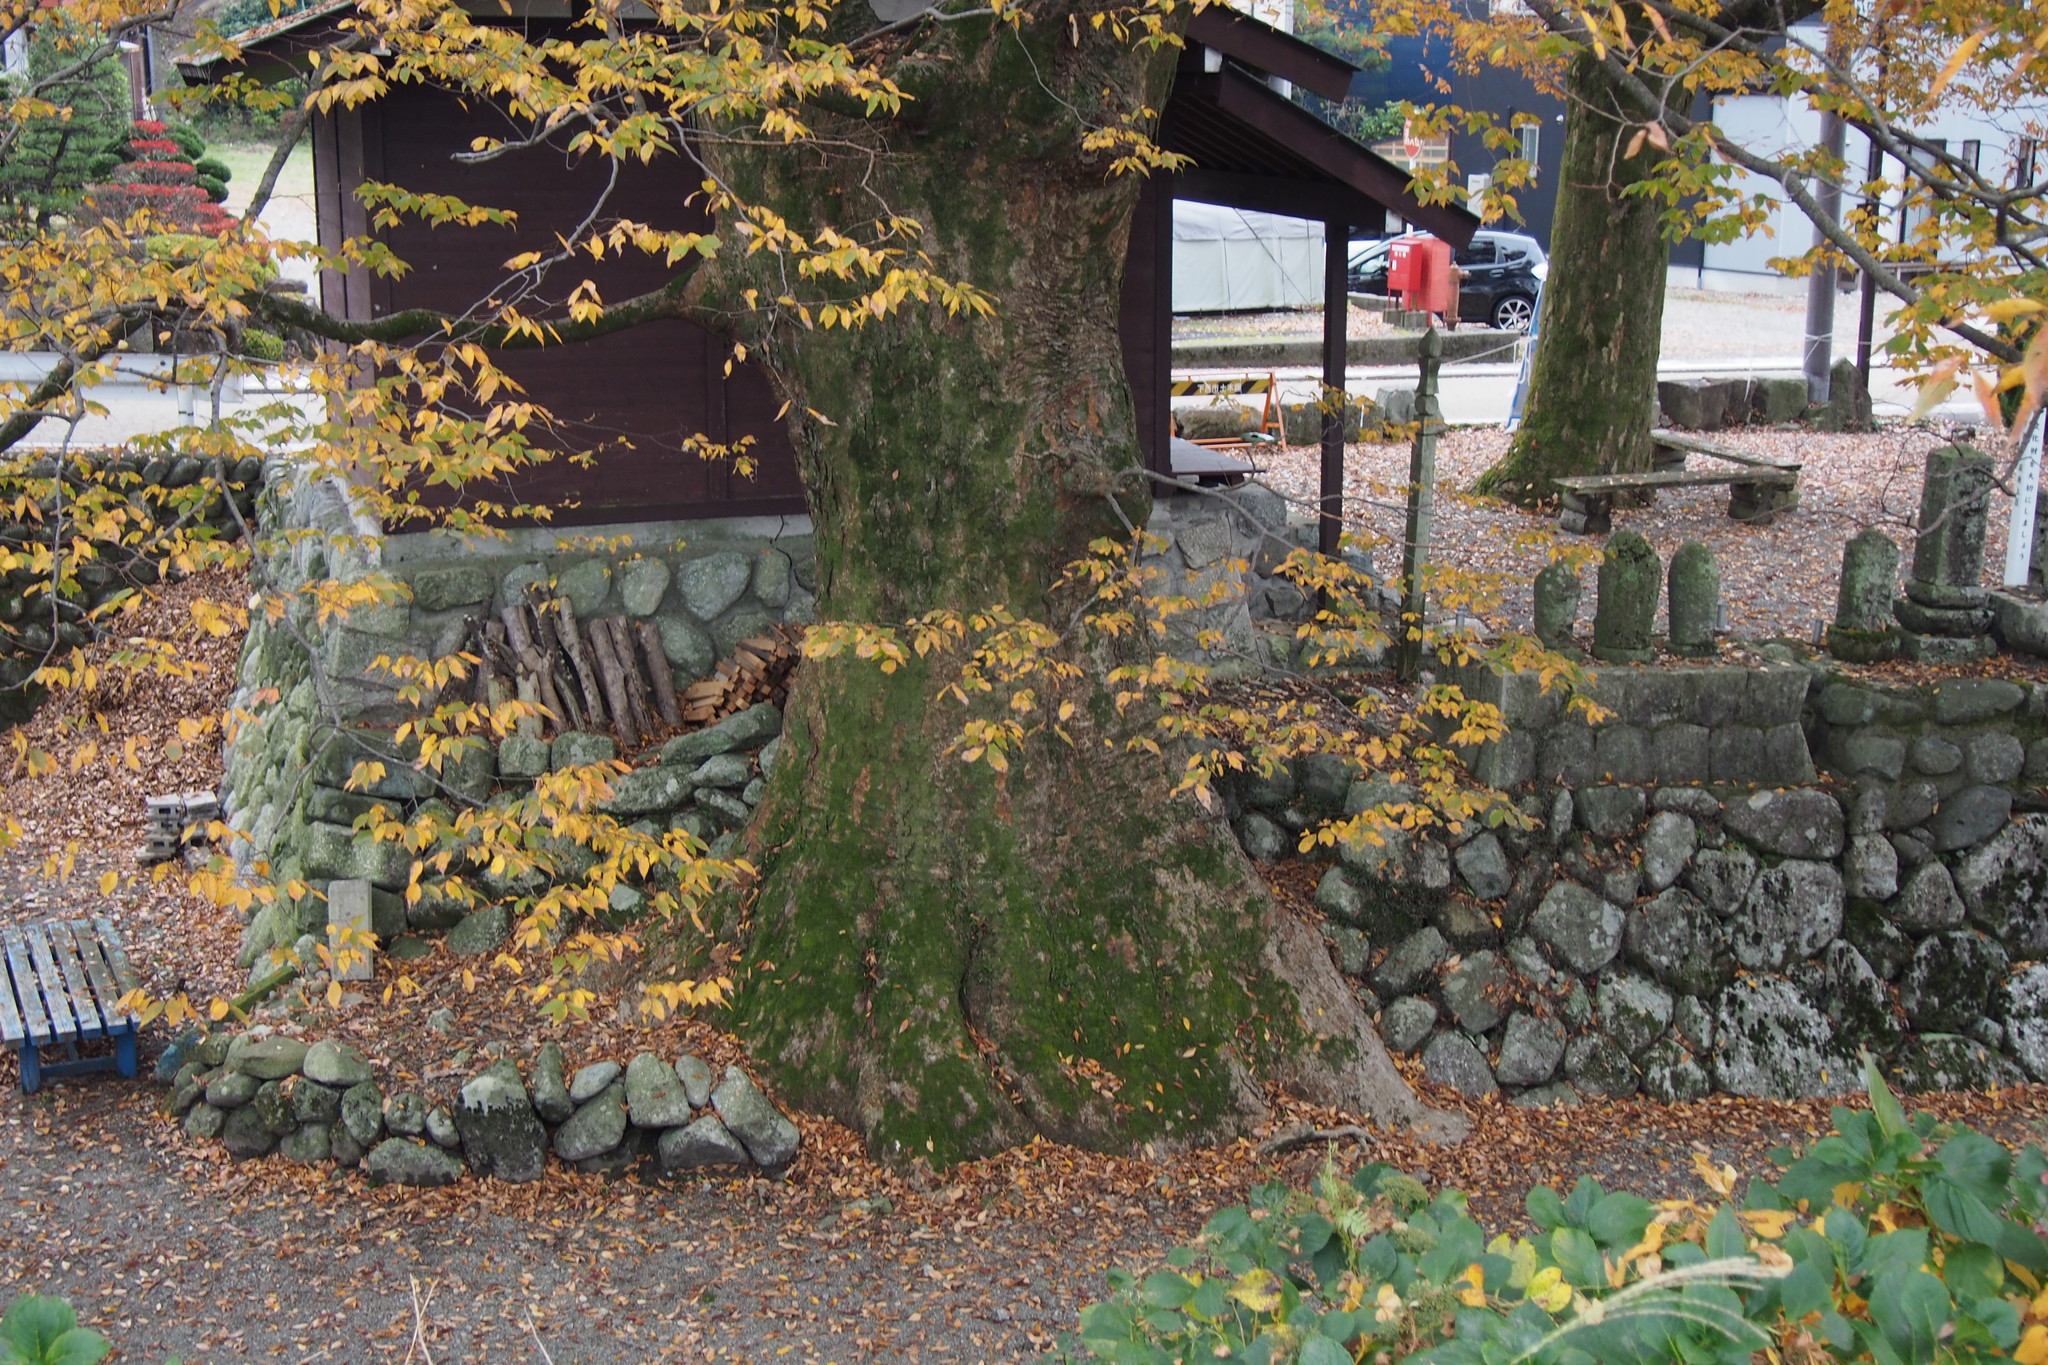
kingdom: Plantae
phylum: Tracheophyta
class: Magnoliopsida
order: Rosales
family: Ulmaceae
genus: Zelkova
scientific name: Zelkova serrata
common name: Japanese zelkova
